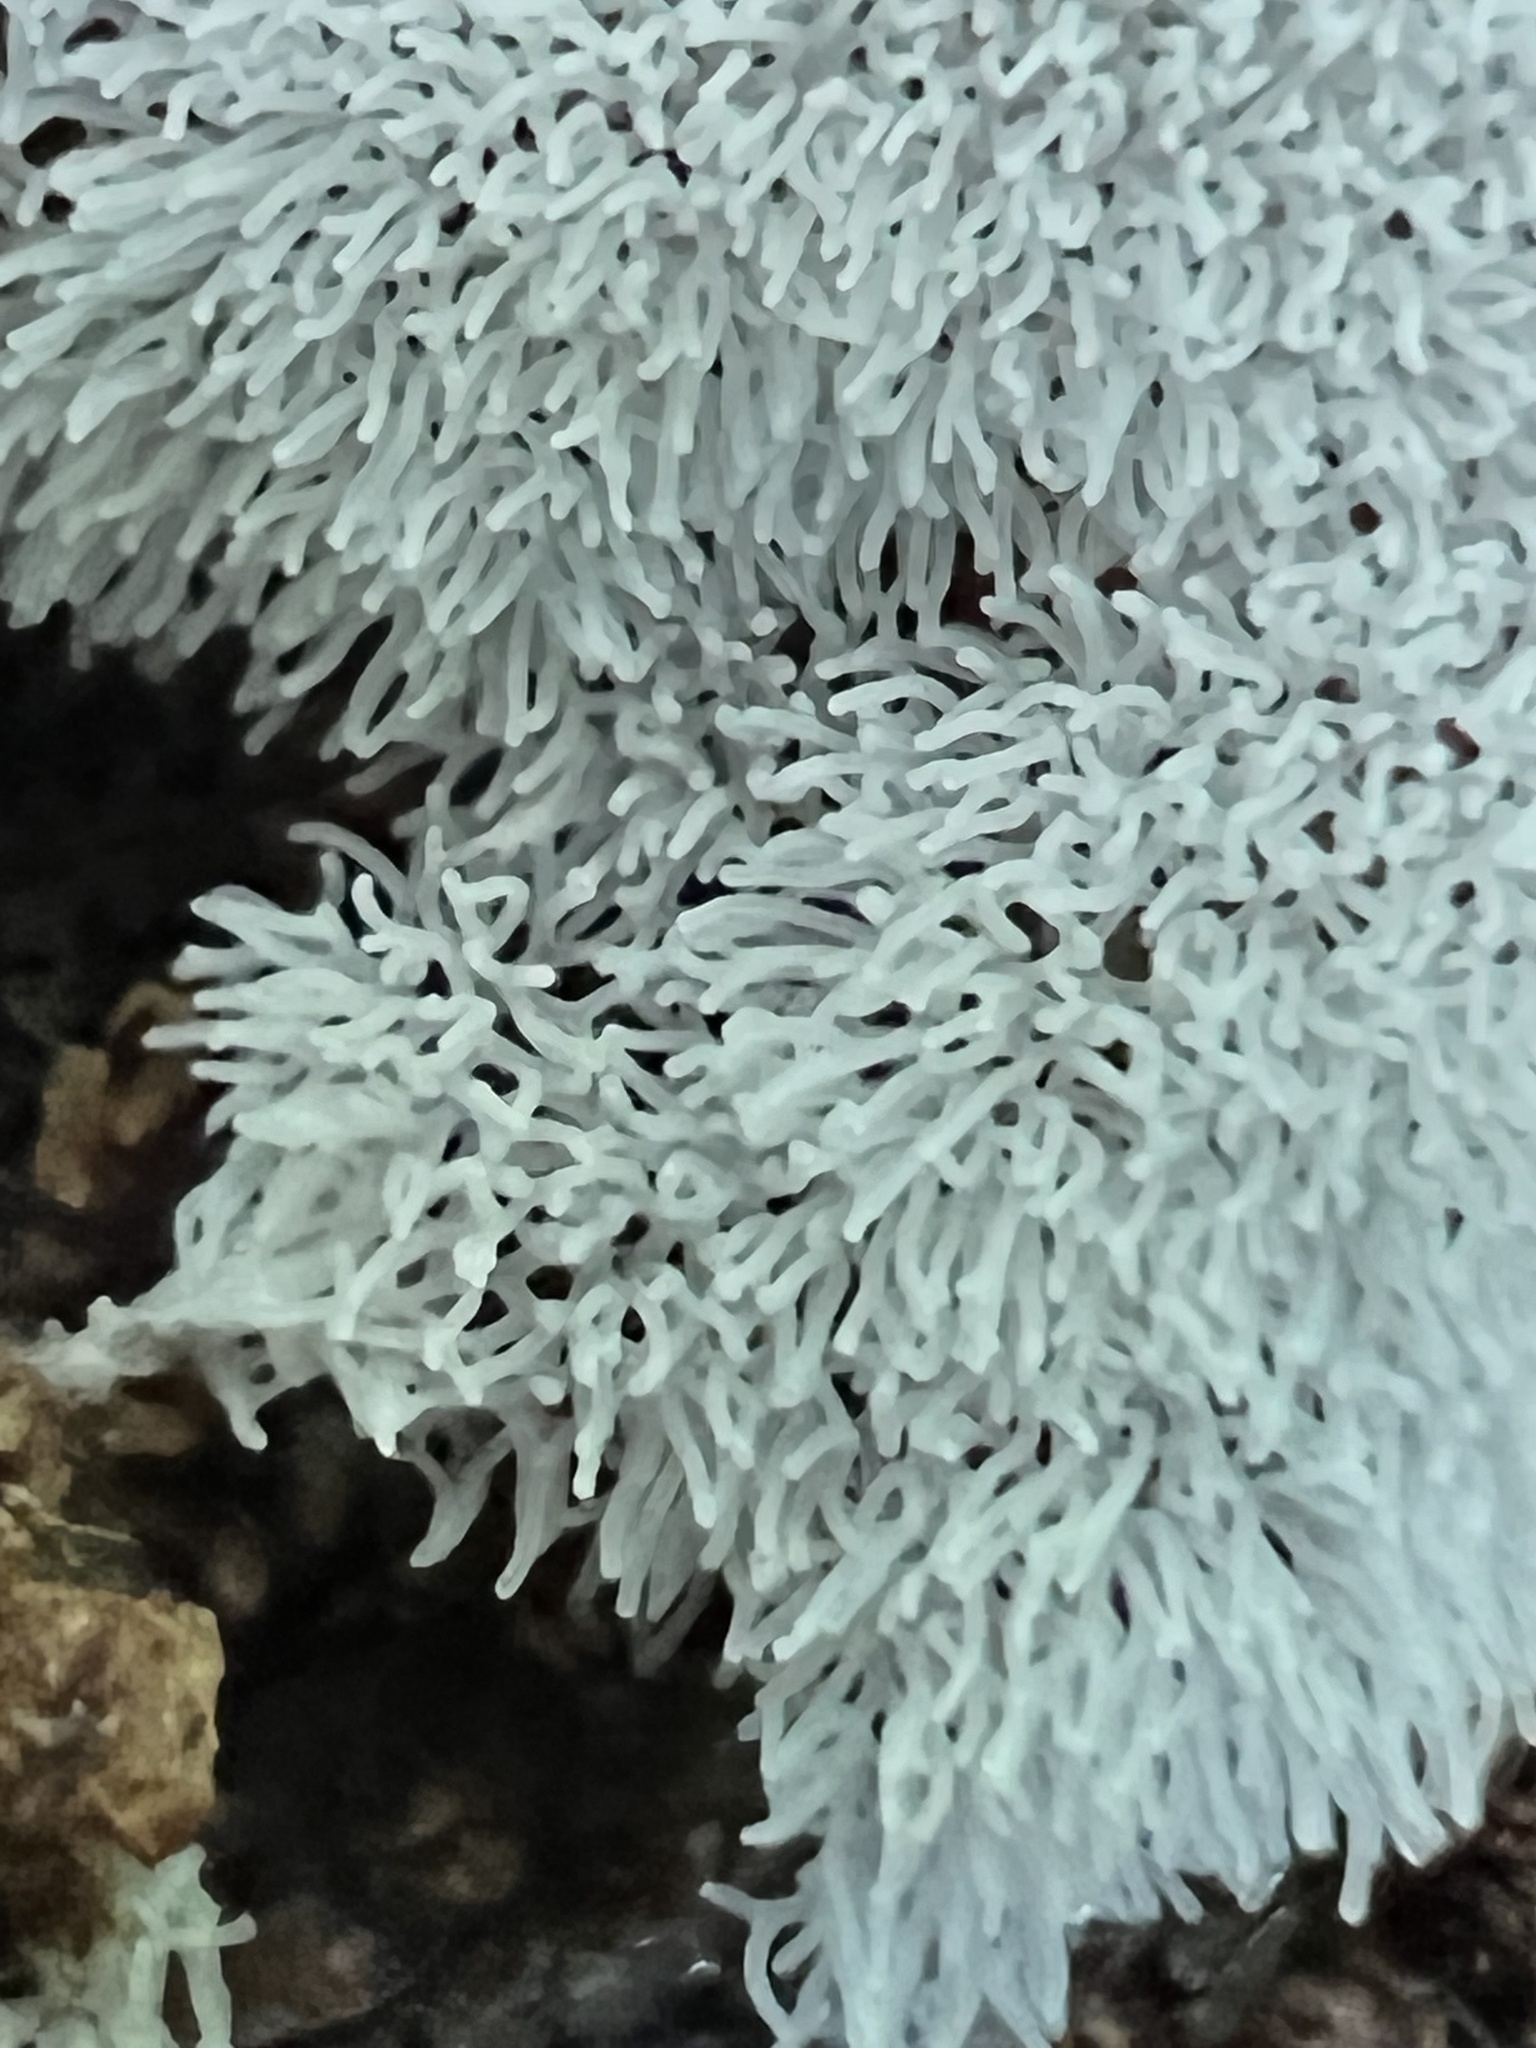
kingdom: Protozoa
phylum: Mycetozoa
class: Protosteliomycetes
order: Ceratiomyxales
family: Ceratiomyxaceae
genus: Ceratiomyxa
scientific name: Ceratiomyxa fruticulosa
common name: Honeycomb coral slime mold
